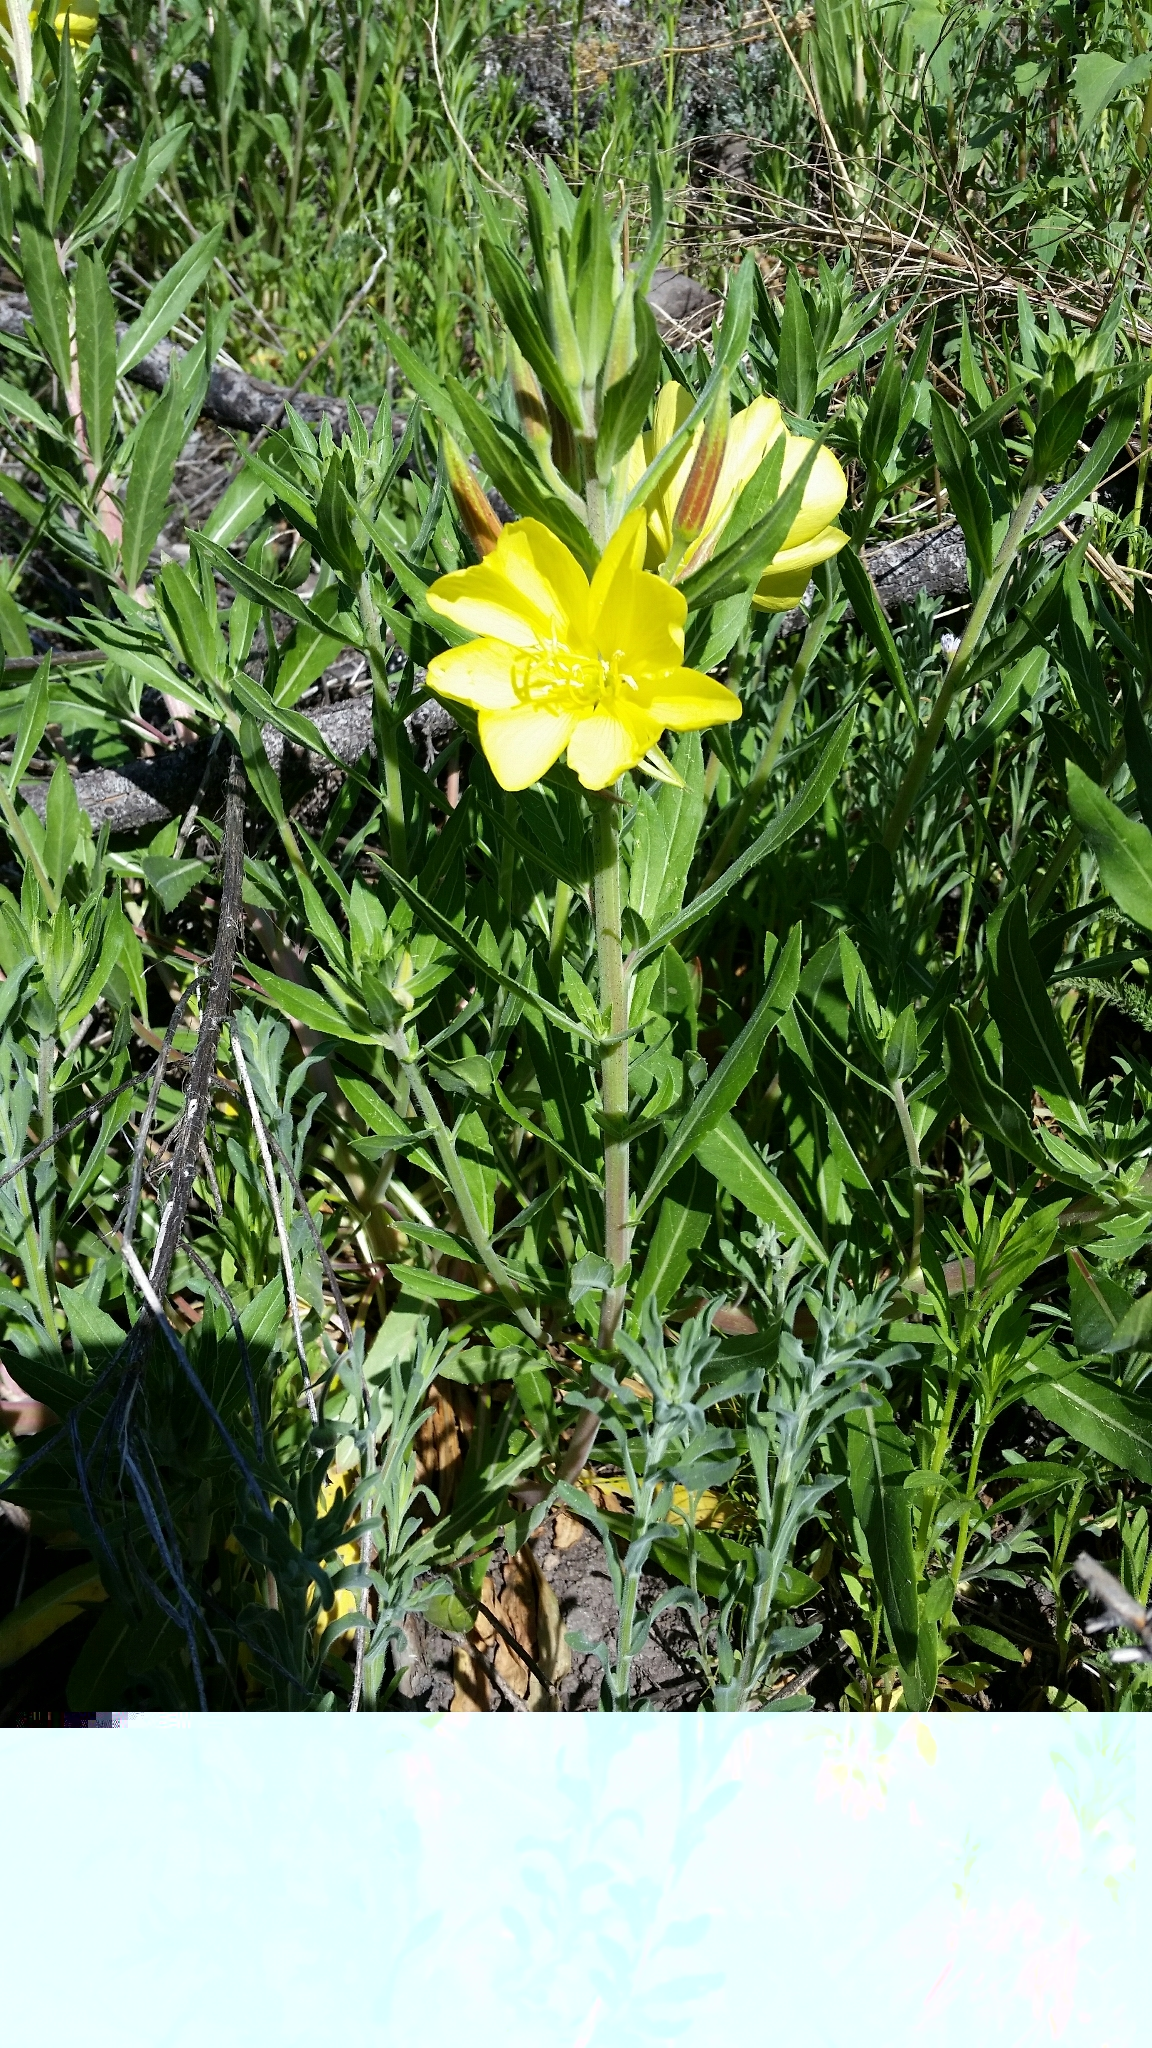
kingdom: Plantae
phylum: Tracheophyta
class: Magnoliopsida
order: Myrtales
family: Onagraceae
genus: Oenothera
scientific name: Oenothera elata
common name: Hooker's evening-primrose
